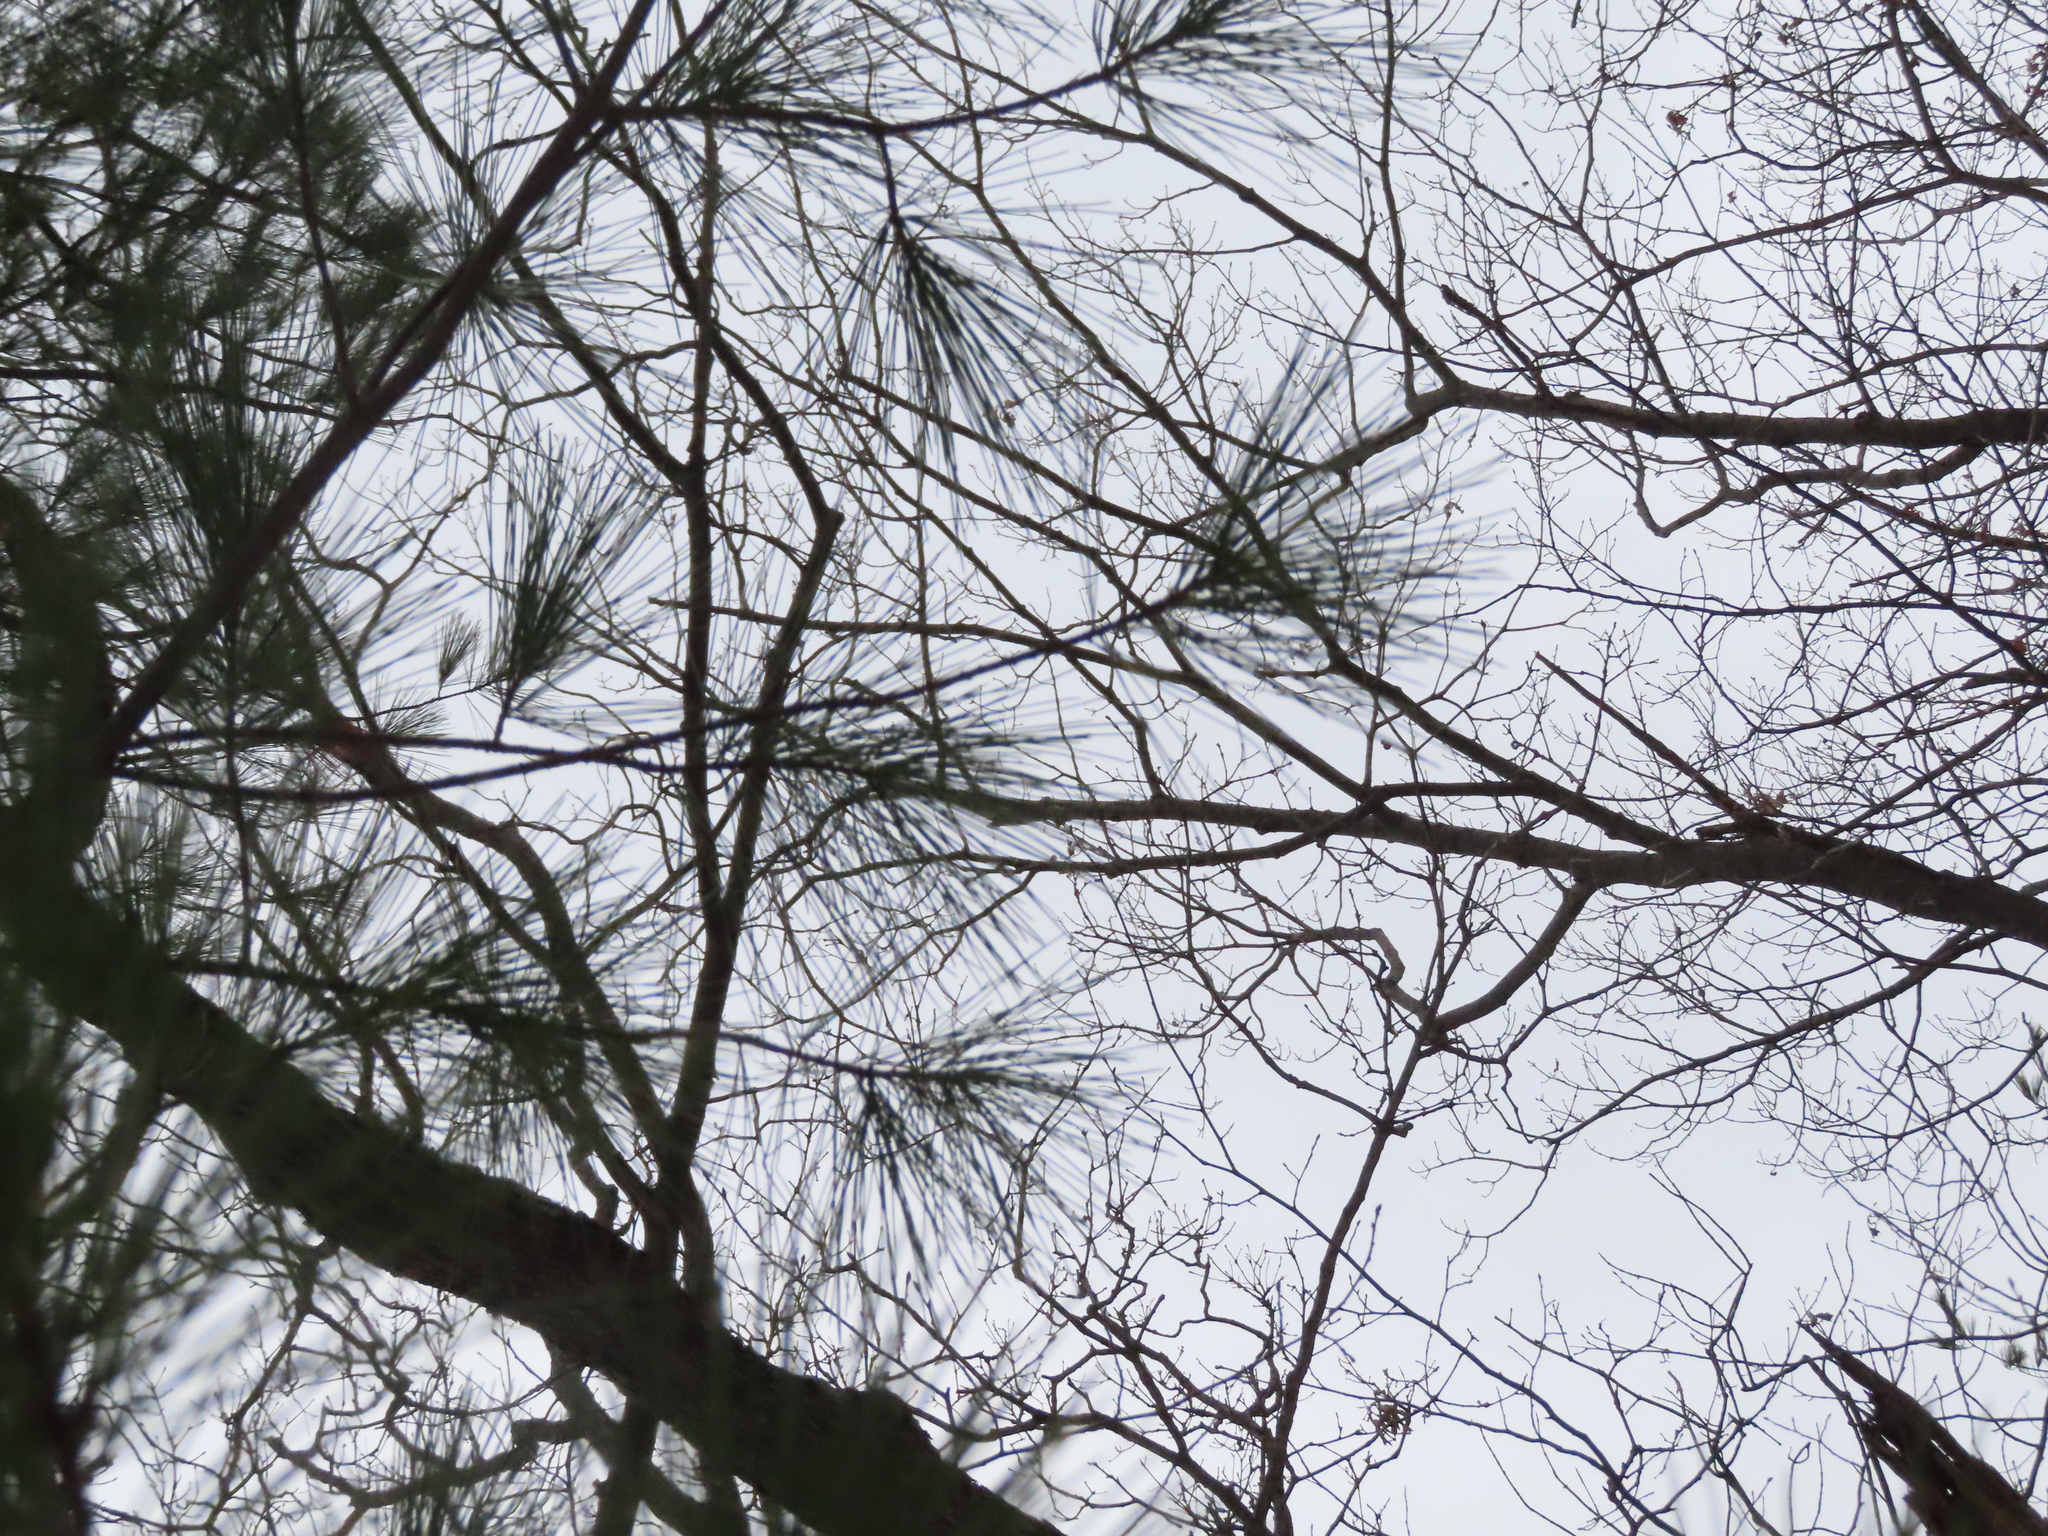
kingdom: Plantae
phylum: Tracheophyta
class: Pinopsida
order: Pinales
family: Pinaceae
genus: Pinus
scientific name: Pinus strobus
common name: Weymouth pine
